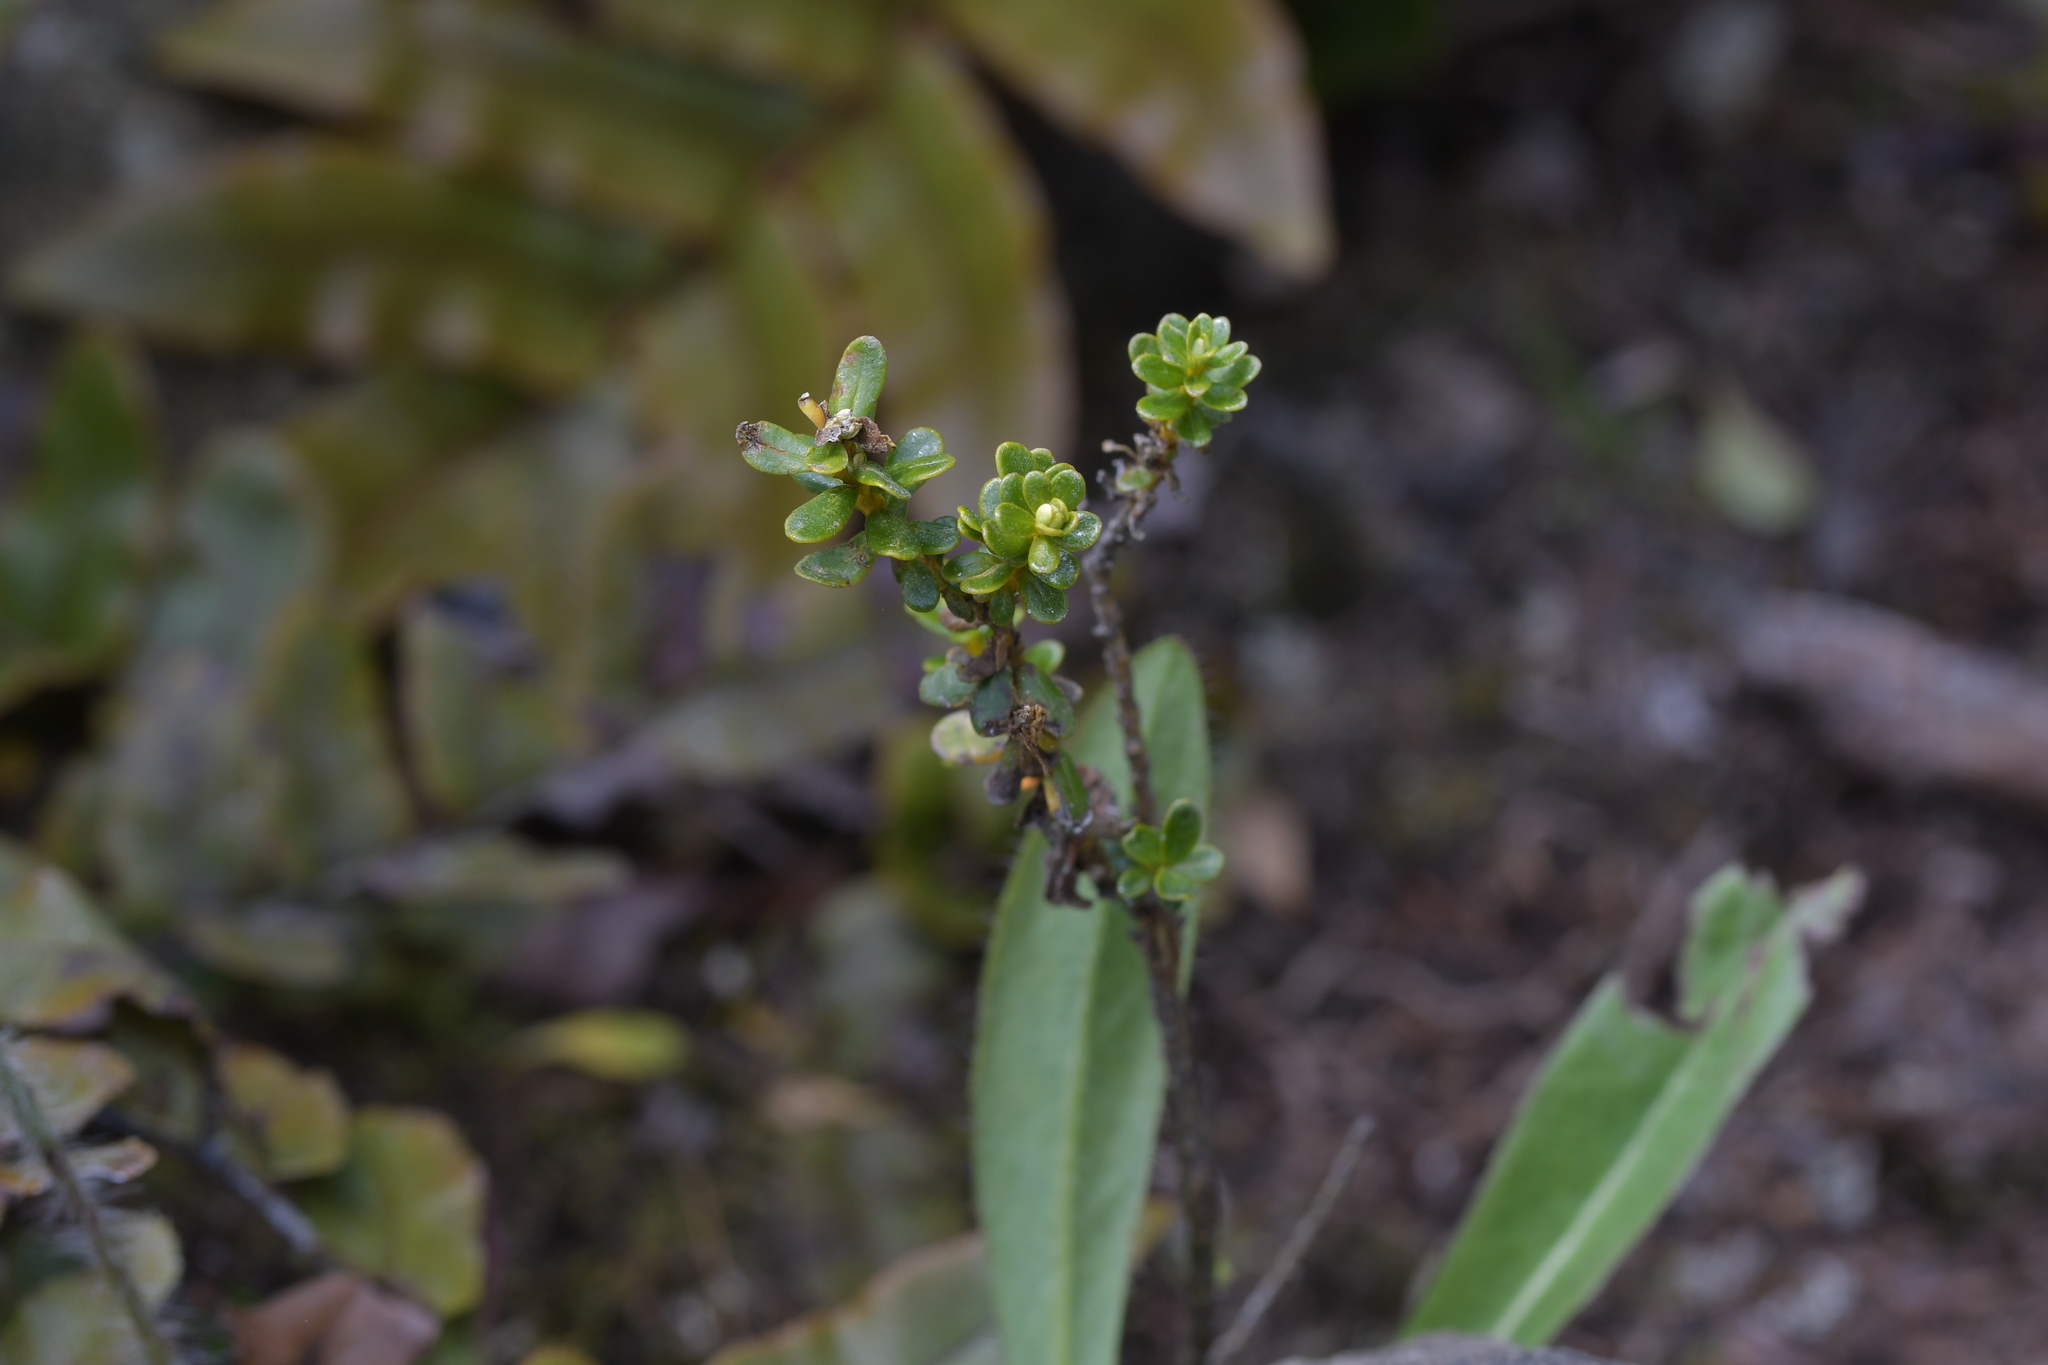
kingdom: Plantae
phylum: Tracheophyta
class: Magnoliopsida
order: Asterales
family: Asteraceae
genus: Ozothamnus
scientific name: Ozothamnus leptophyllus
